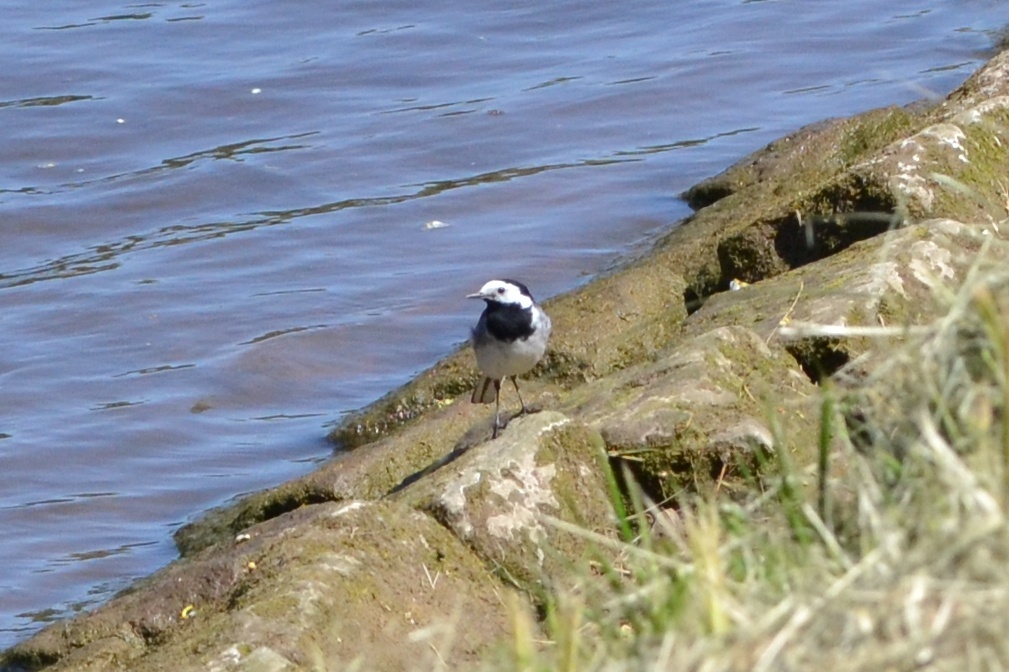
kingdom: Animalia
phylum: Chordata
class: Aves
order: Passeriformes
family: Motacillidae
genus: Motacilla
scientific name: Motacilla alba
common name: White wagtail
